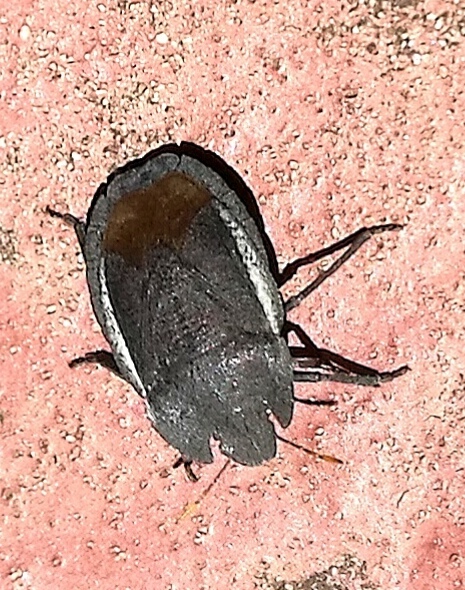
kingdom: Animalia
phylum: Arthropoda
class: Insecta
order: Hemiptera
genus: Gellia
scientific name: Gellia
